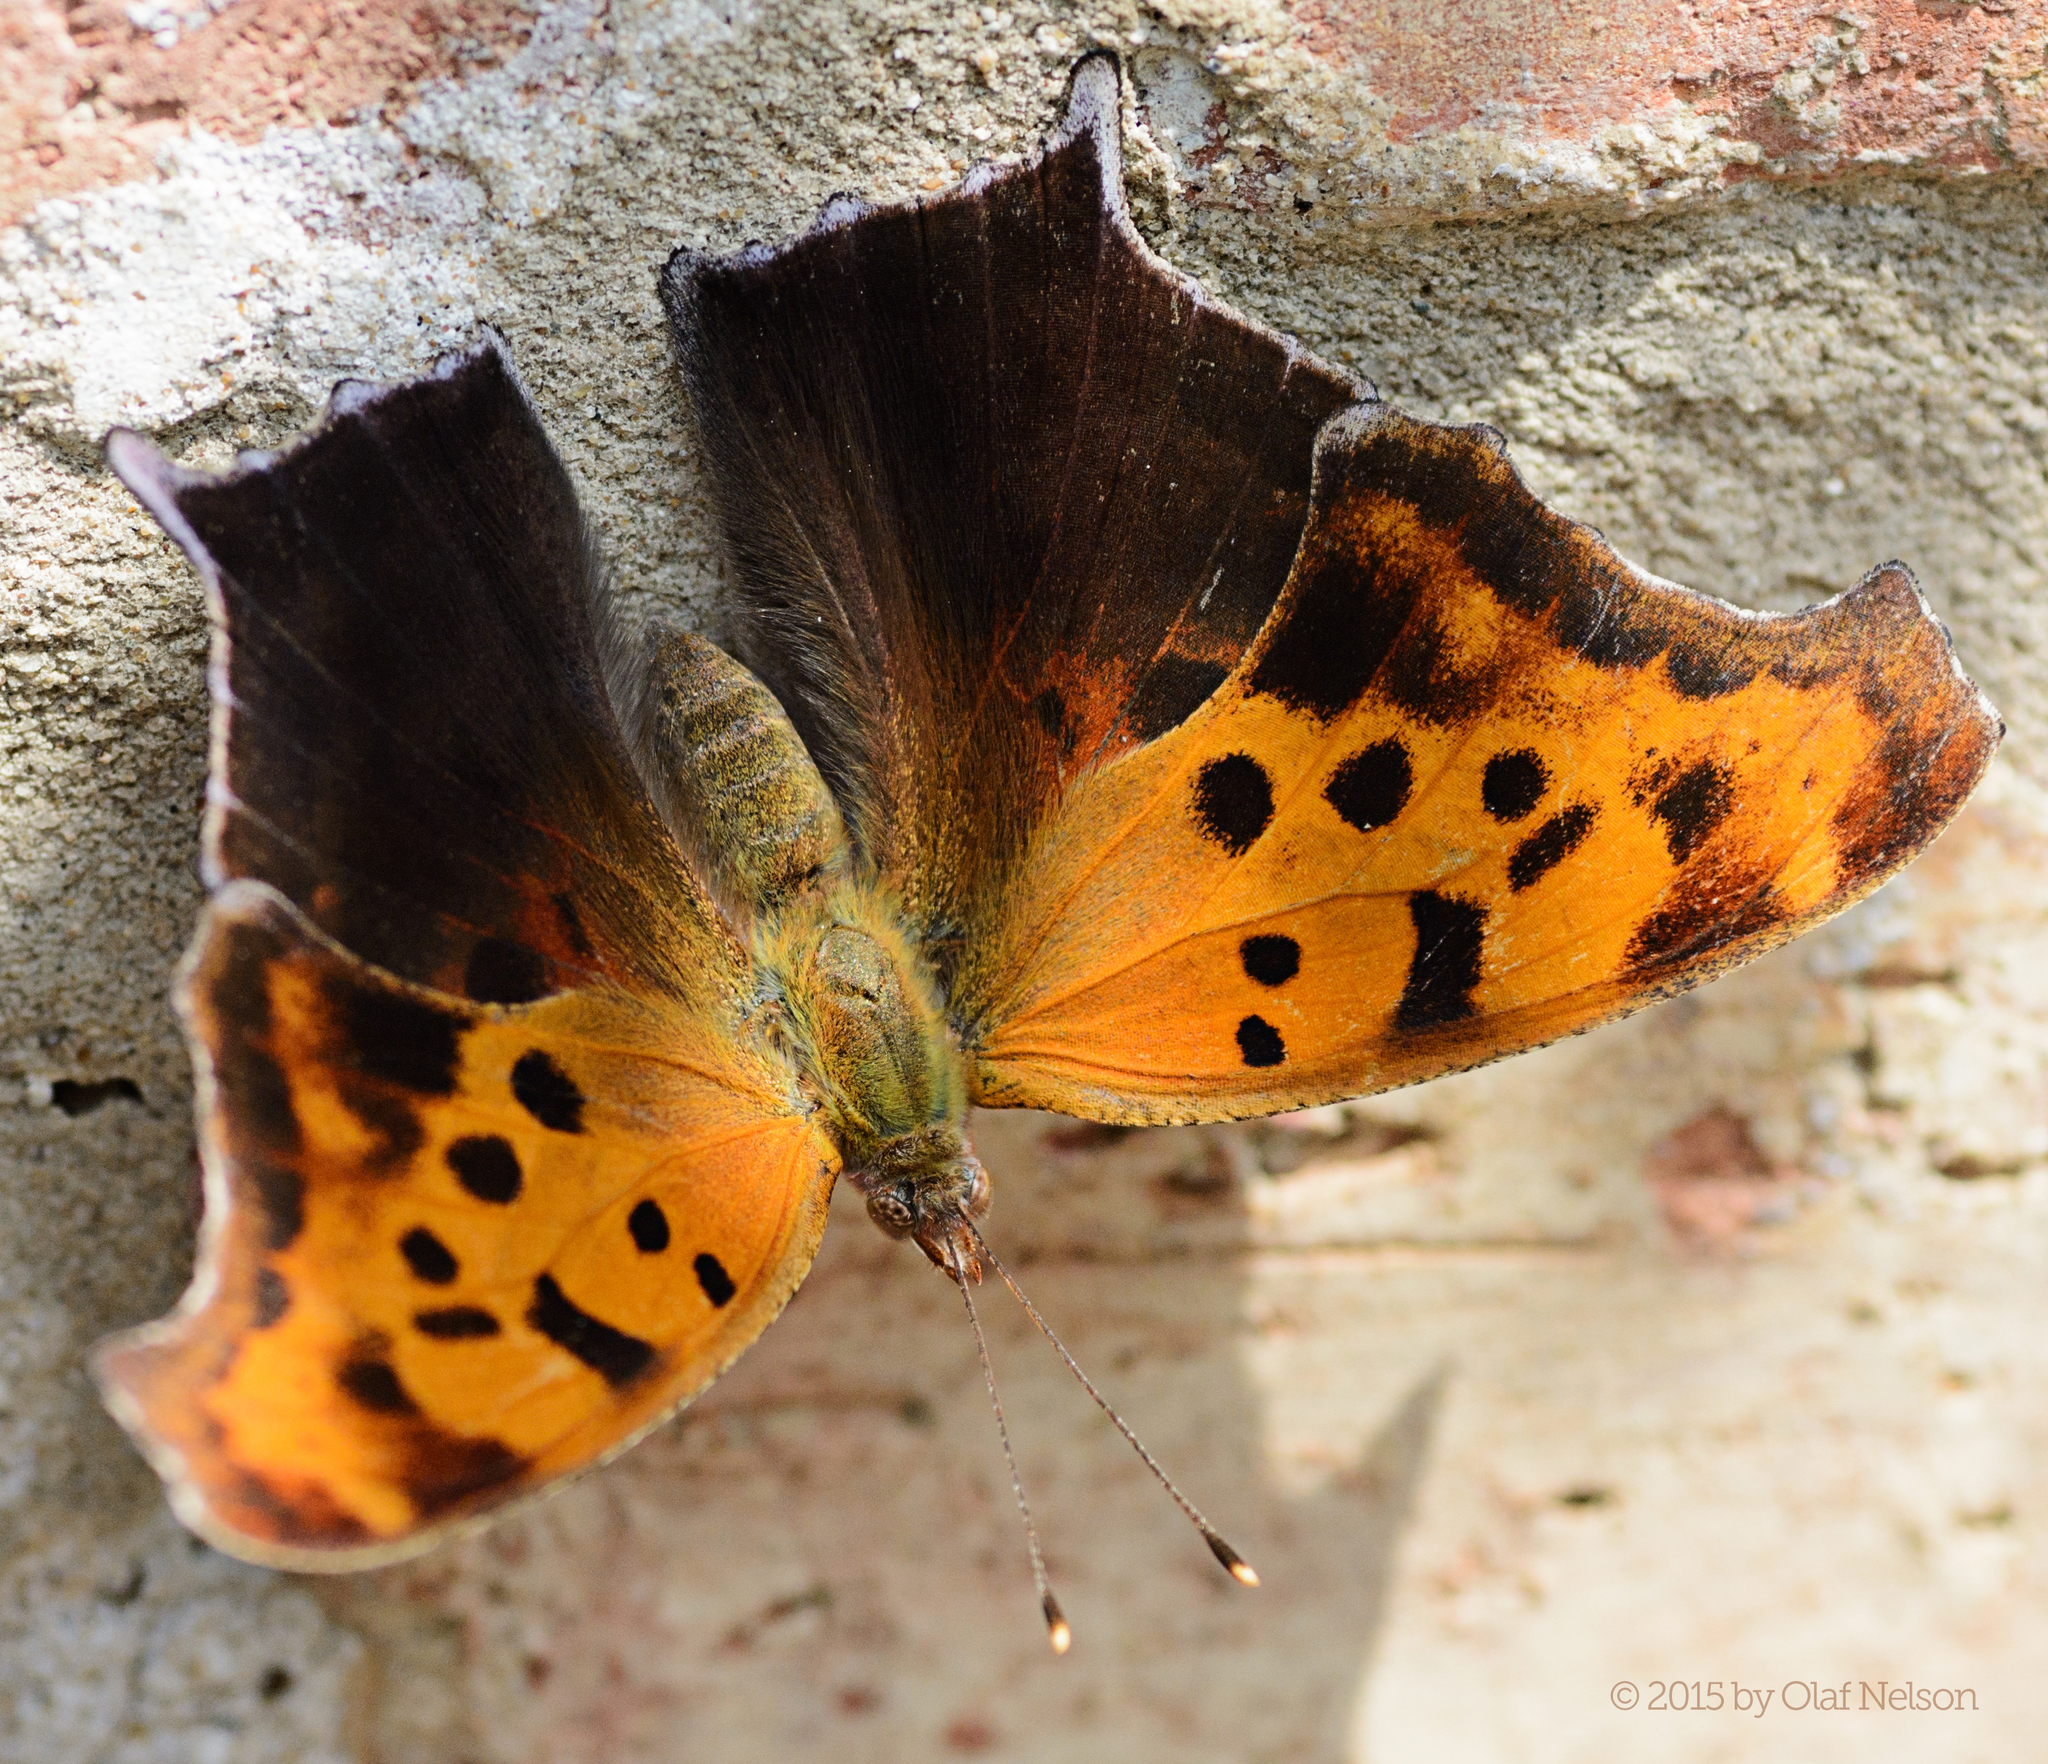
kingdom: Animalia
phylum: Arthropoda
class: Insecta
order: Lepidoptera
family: Nymphalidae
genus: Polygonia
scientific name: Polygonia interrogationis
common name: Question mark
